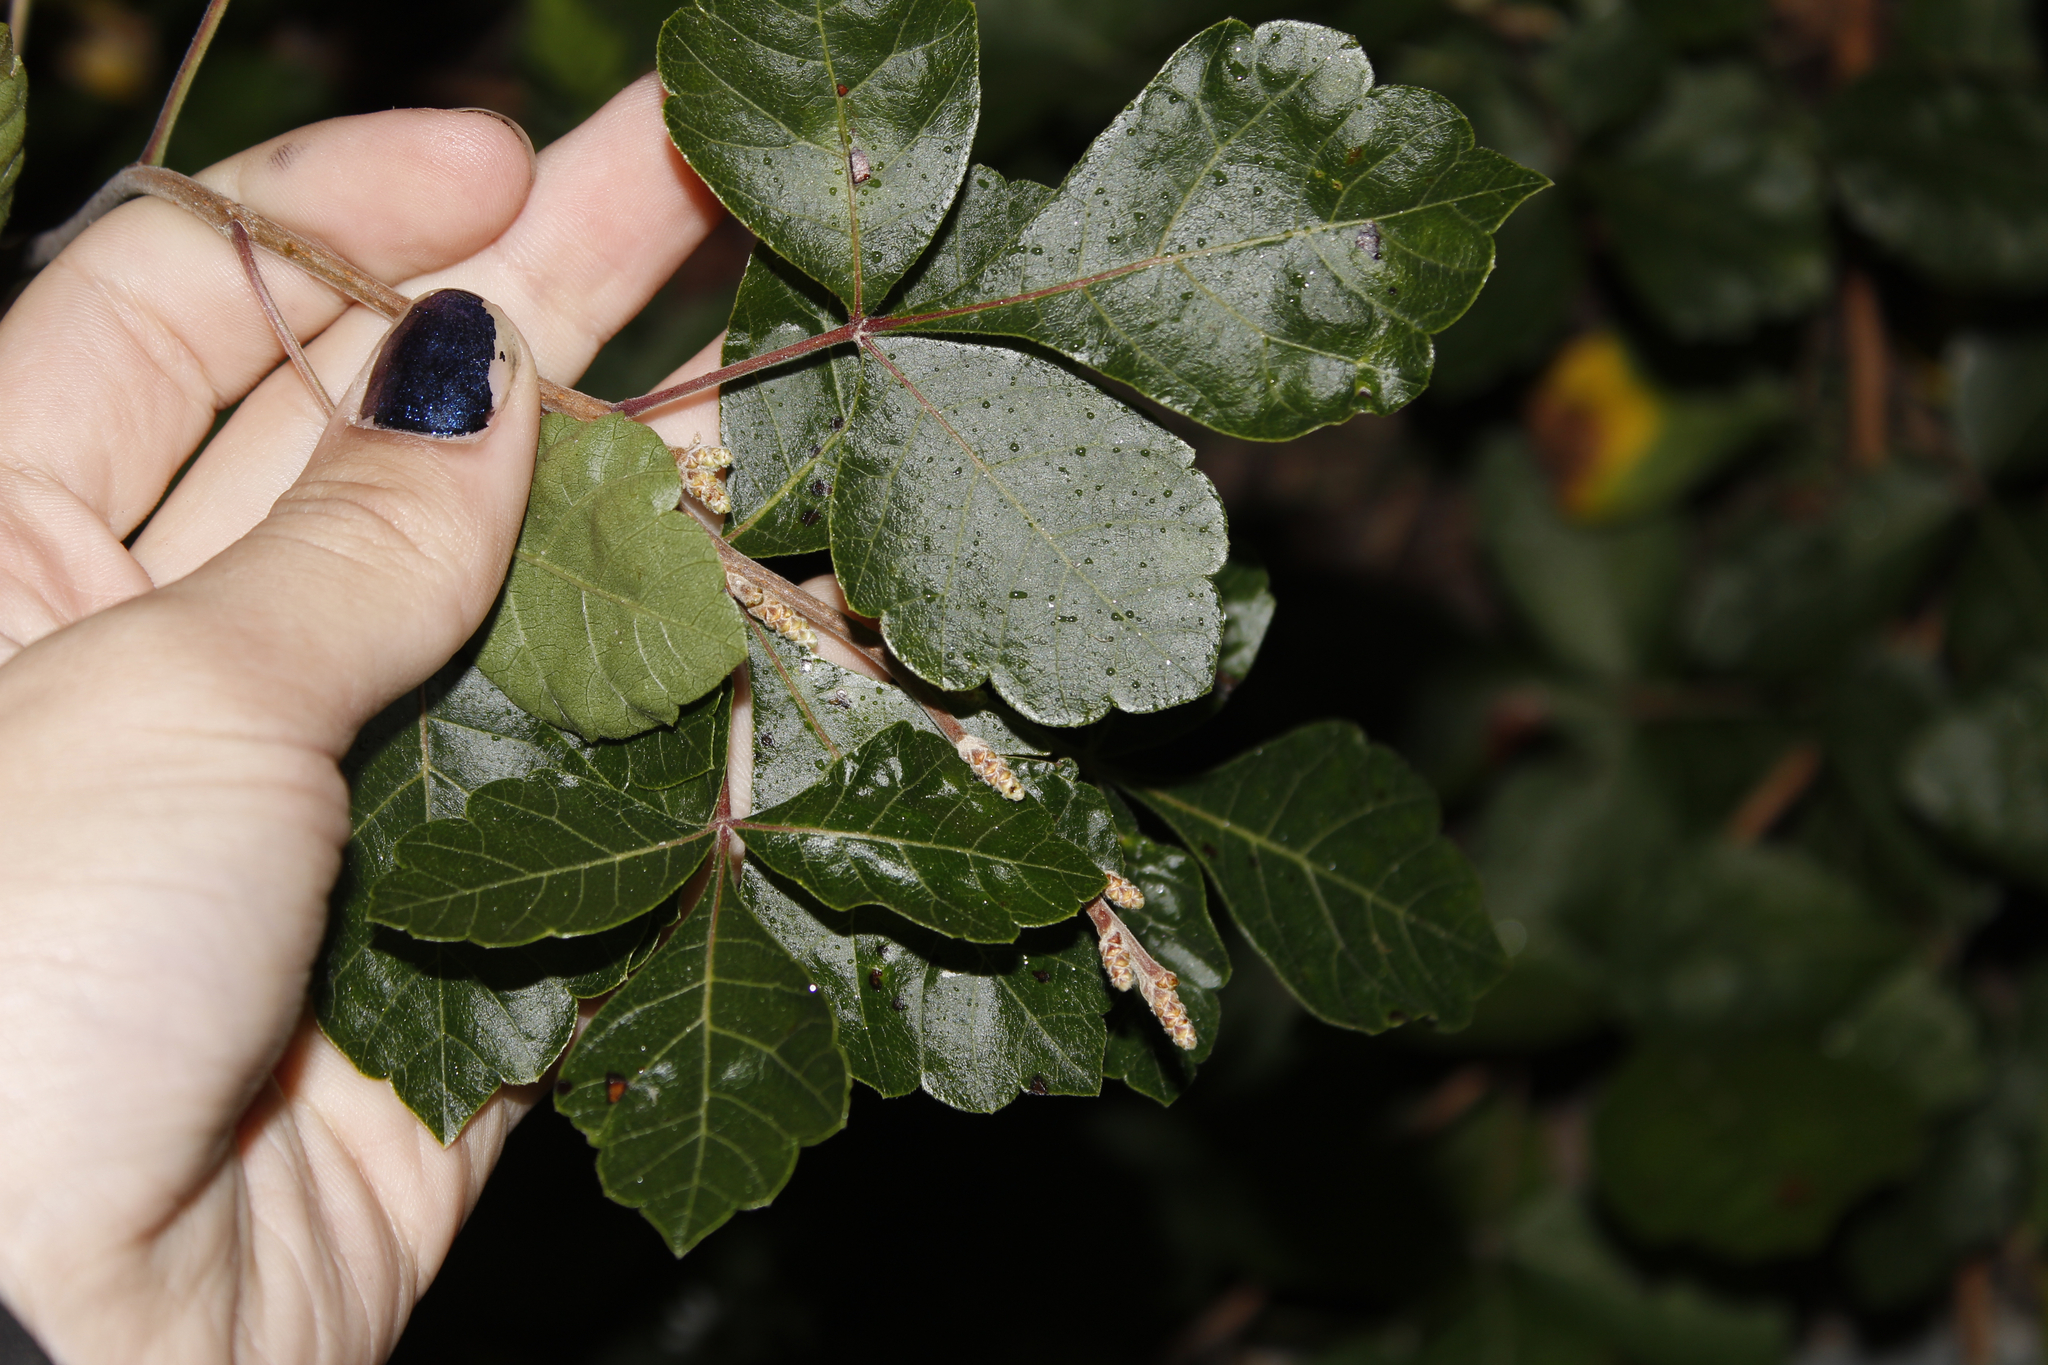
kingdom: Plantae
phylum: Tracheophyta
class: Magnoliopsida
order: Sapindales
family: Anacardiaceae
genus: Rhus
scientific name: Rhus aromatica
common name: Aromatic sumac
